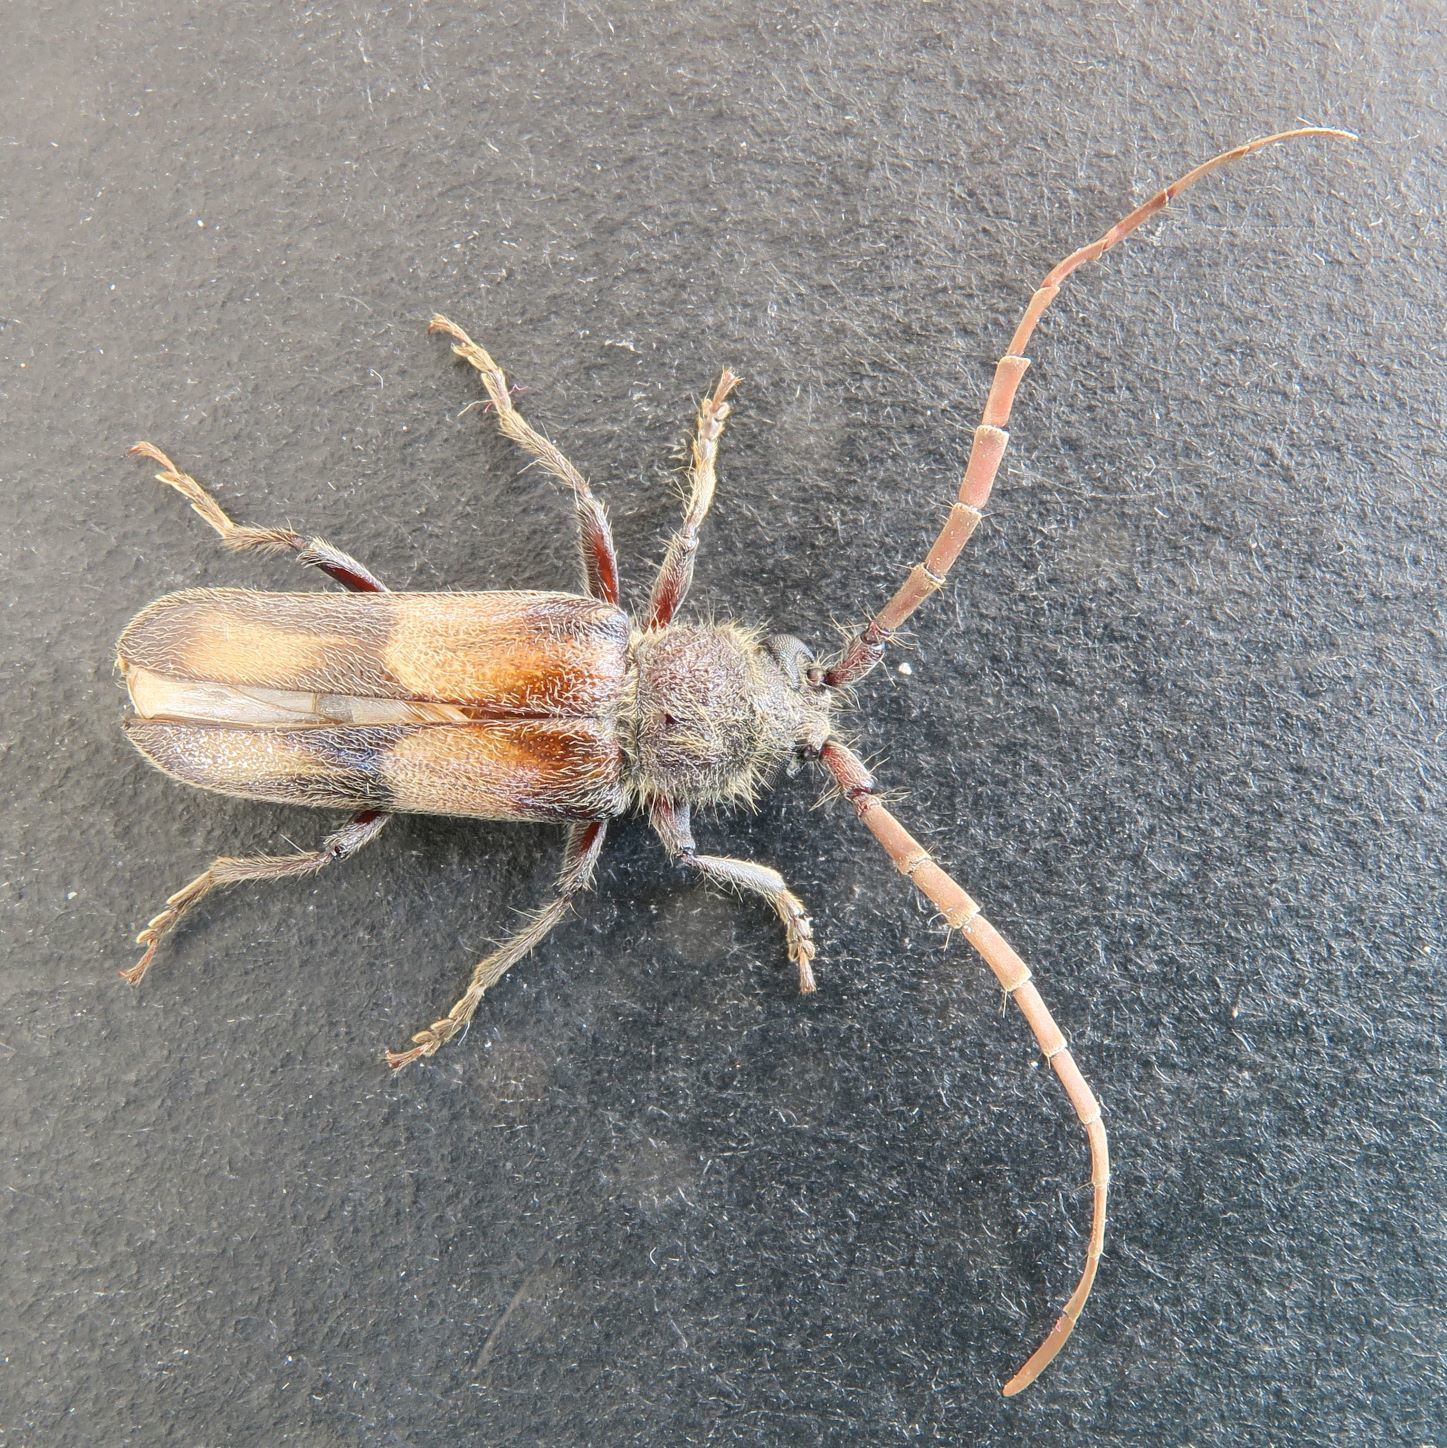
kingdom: Animalia
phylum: Arthropoda
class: Insecta
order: Coleoptera
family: Cerambycidae
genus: Crinarnoldius
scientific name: Crinarnoldius maculatus
